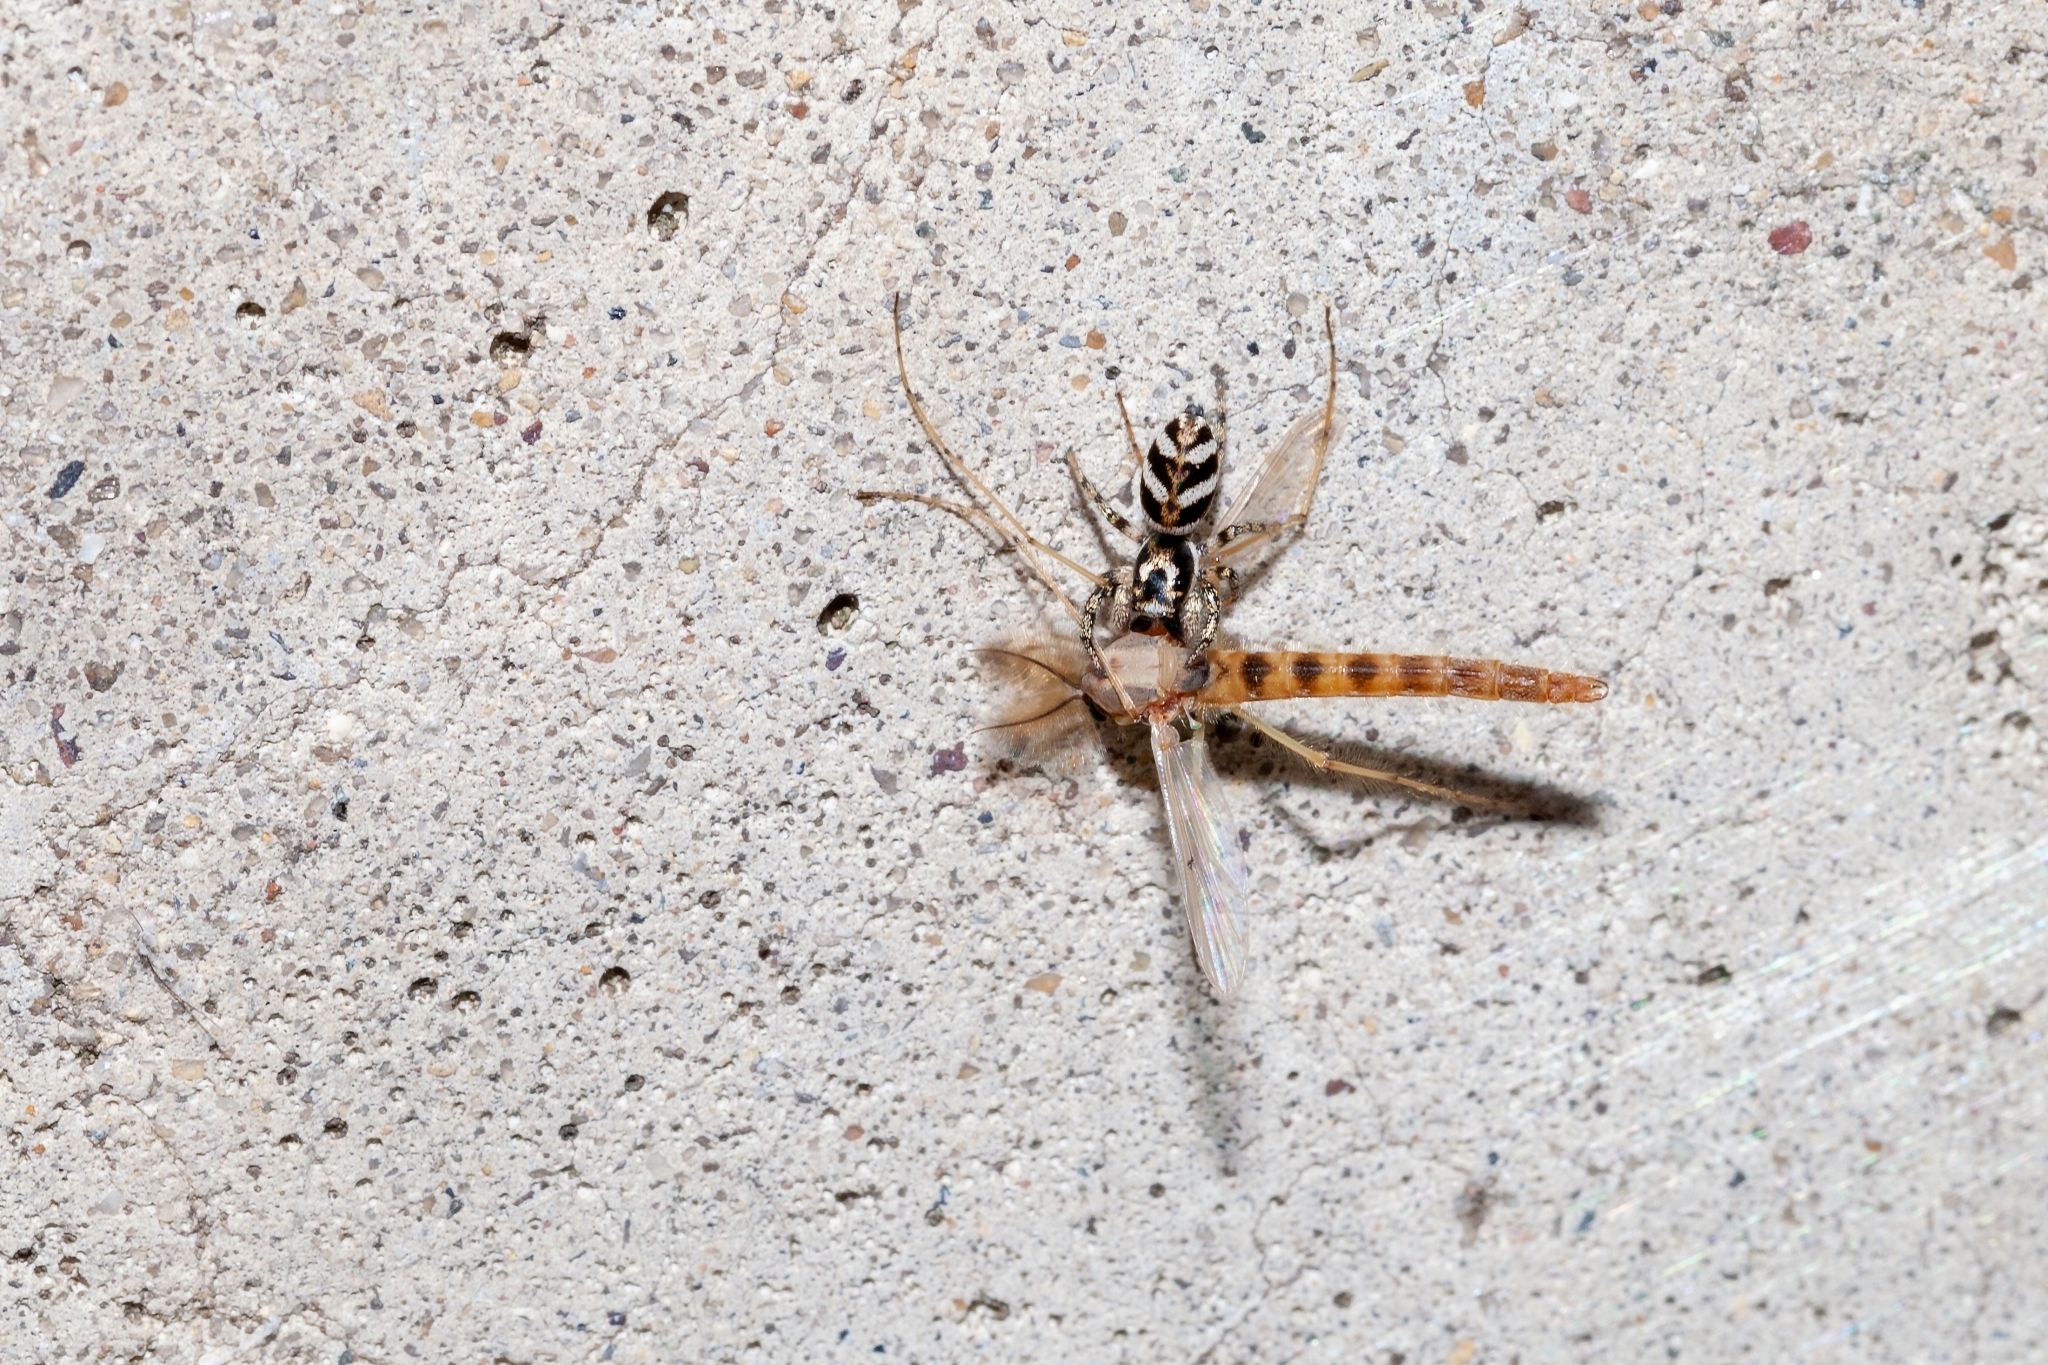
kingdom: Animalia
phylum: Arthropoda
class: Arachnida
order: Araneae
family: Salticidae
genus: Salticus
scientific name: Salticus scenicus
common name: Zebra jumper
